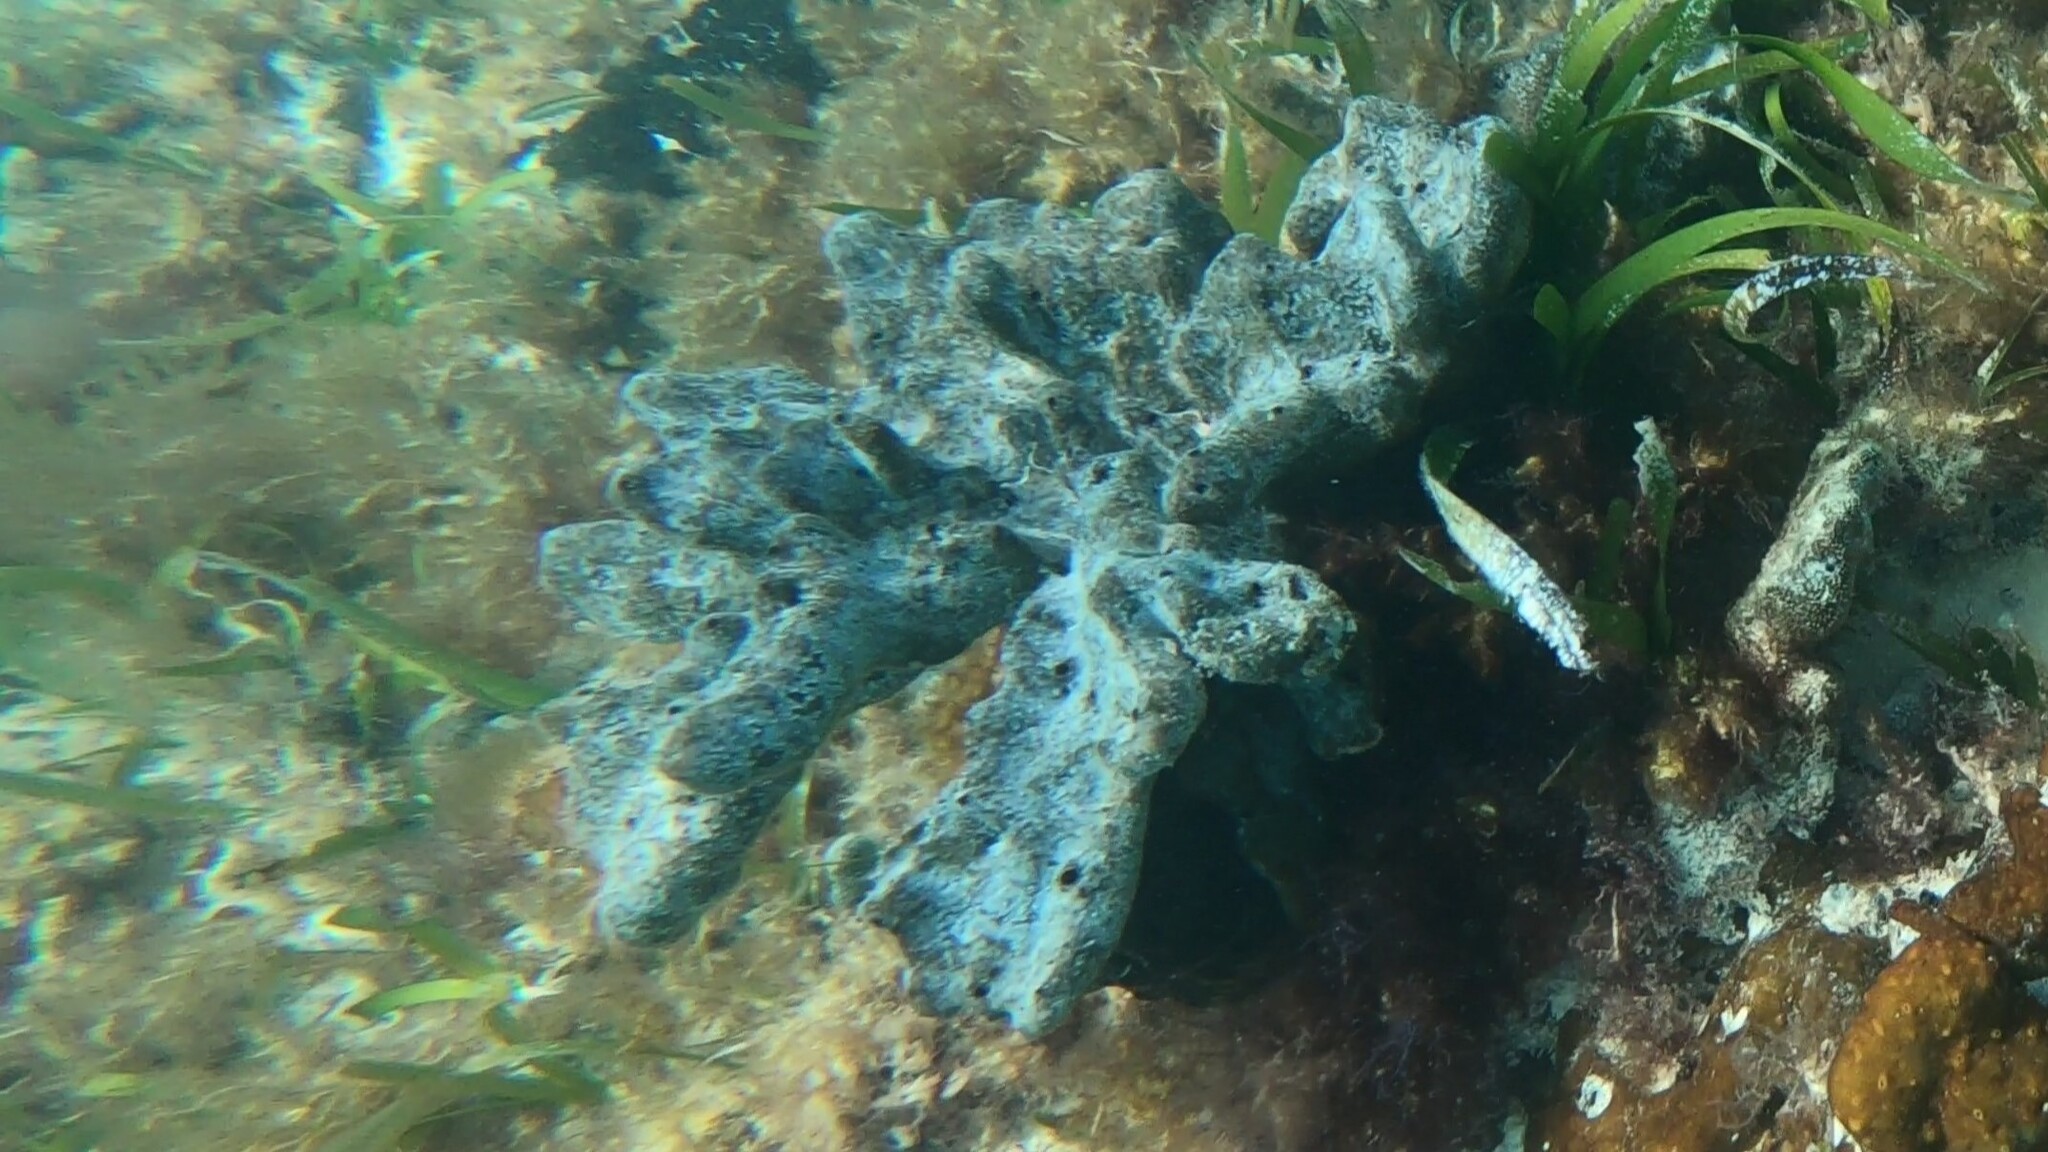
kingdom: Animalia
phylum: Porifera
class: Demospongiae
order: Dictyoceratida
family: Irciniidae
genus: Ircinia
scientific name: Ircinia felix
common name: Stinker sponge
